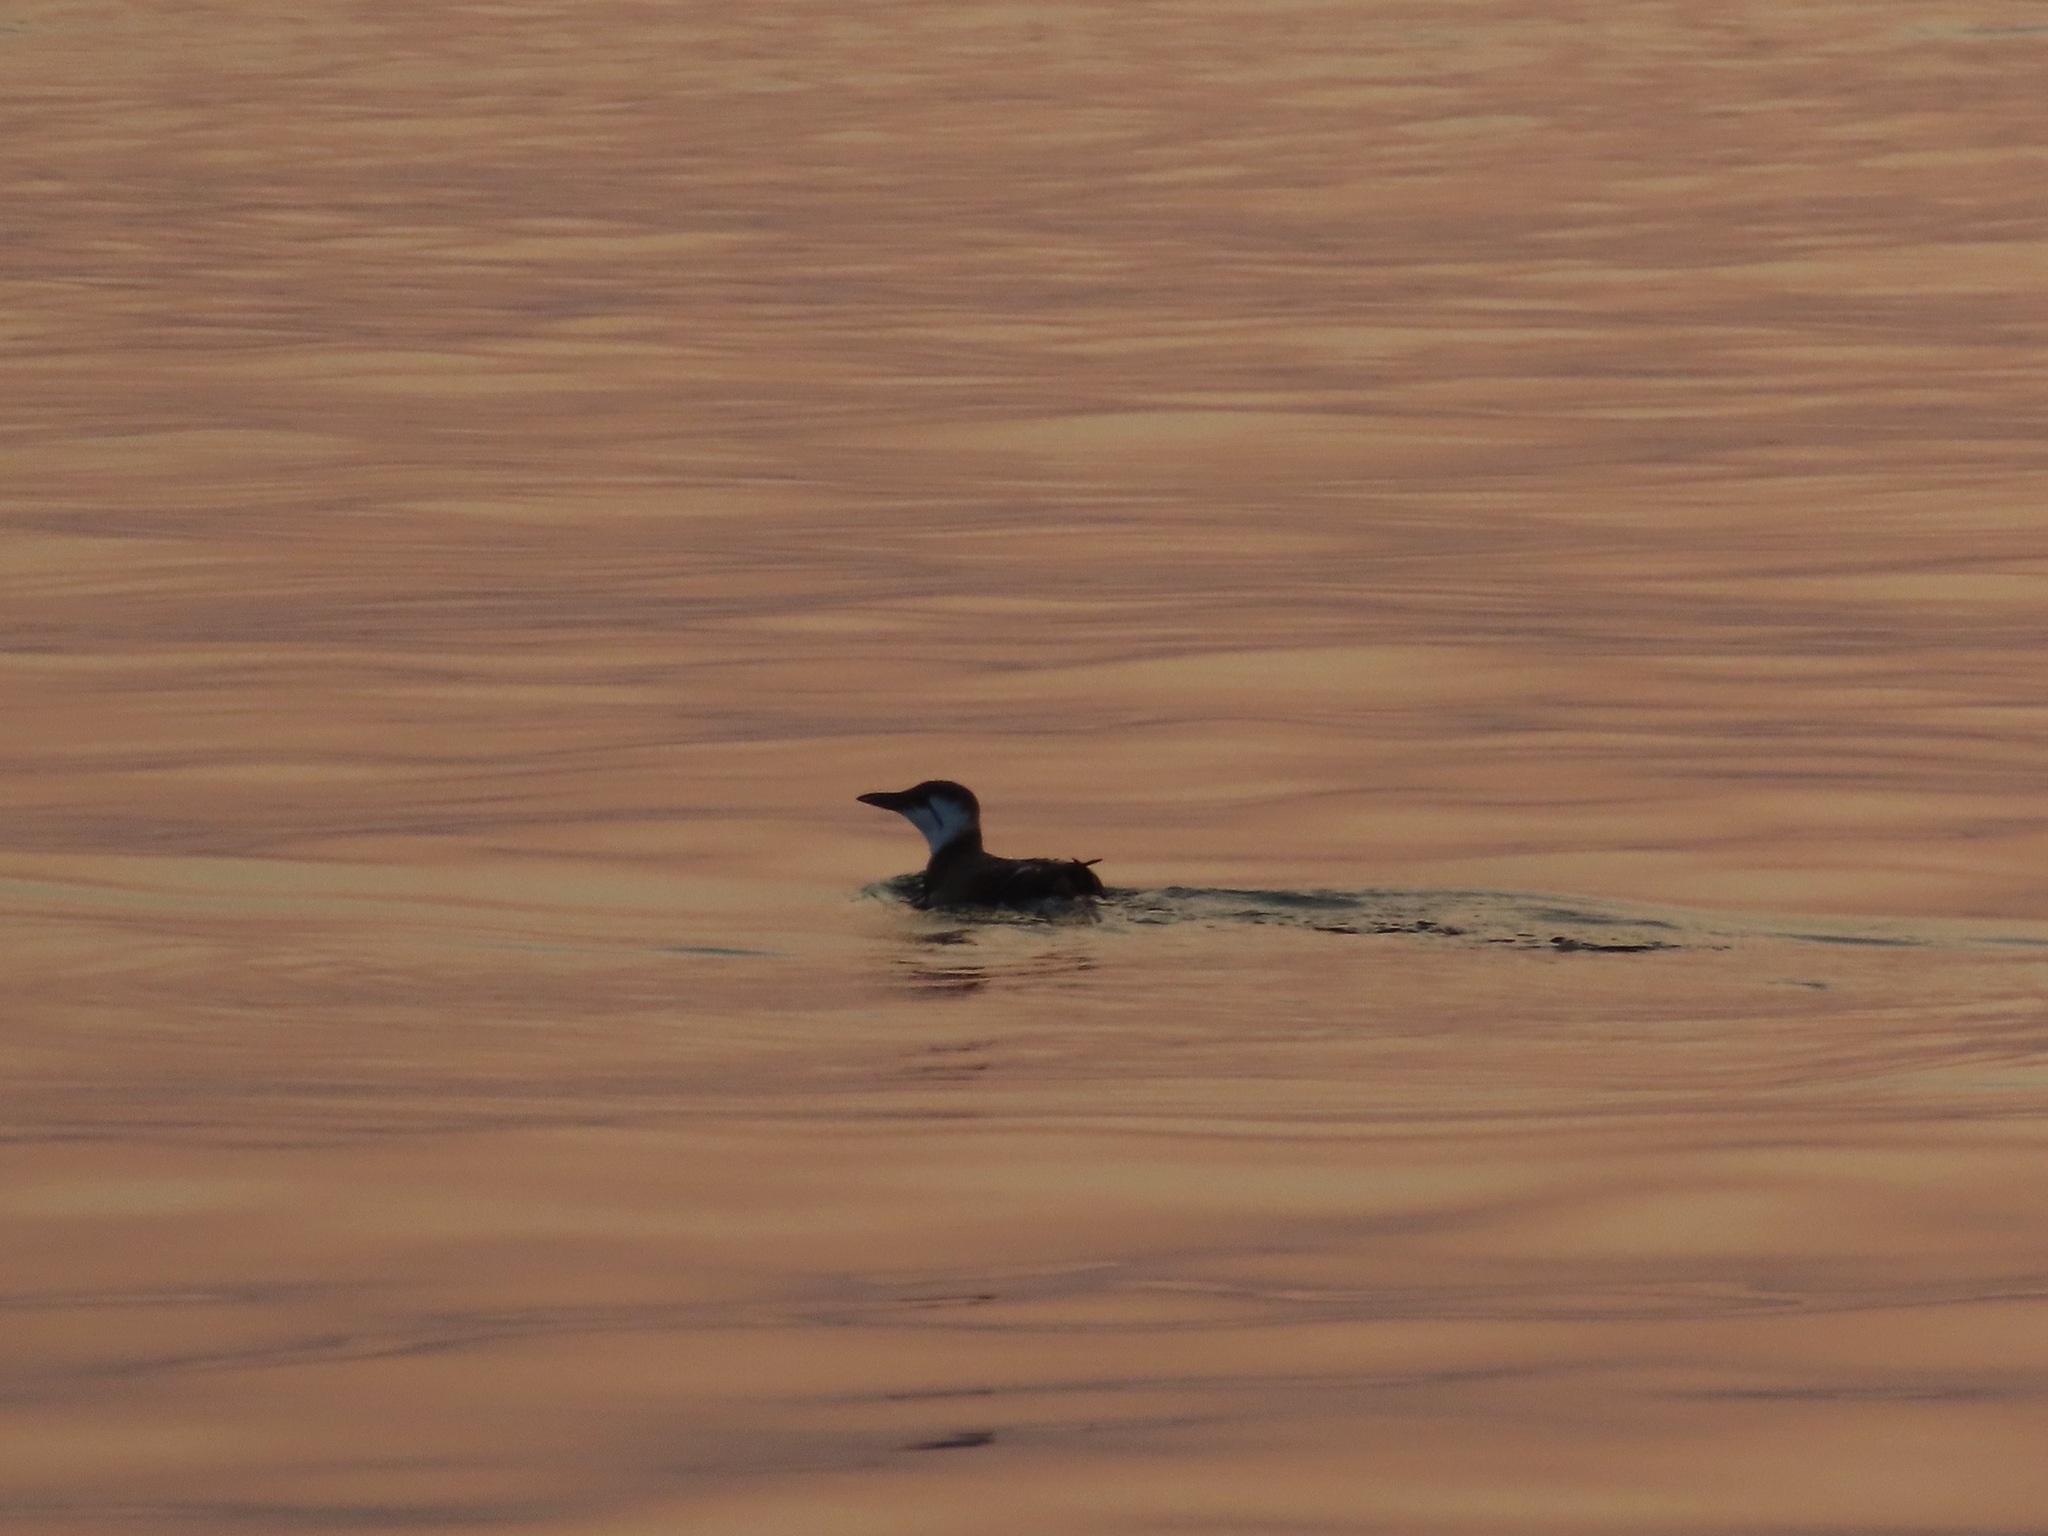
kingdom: Animalia
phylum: Chordata
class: Aves
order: Charadriiformes
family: Alcidae
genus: Uria
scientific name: Uria aalge
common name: Common murre
